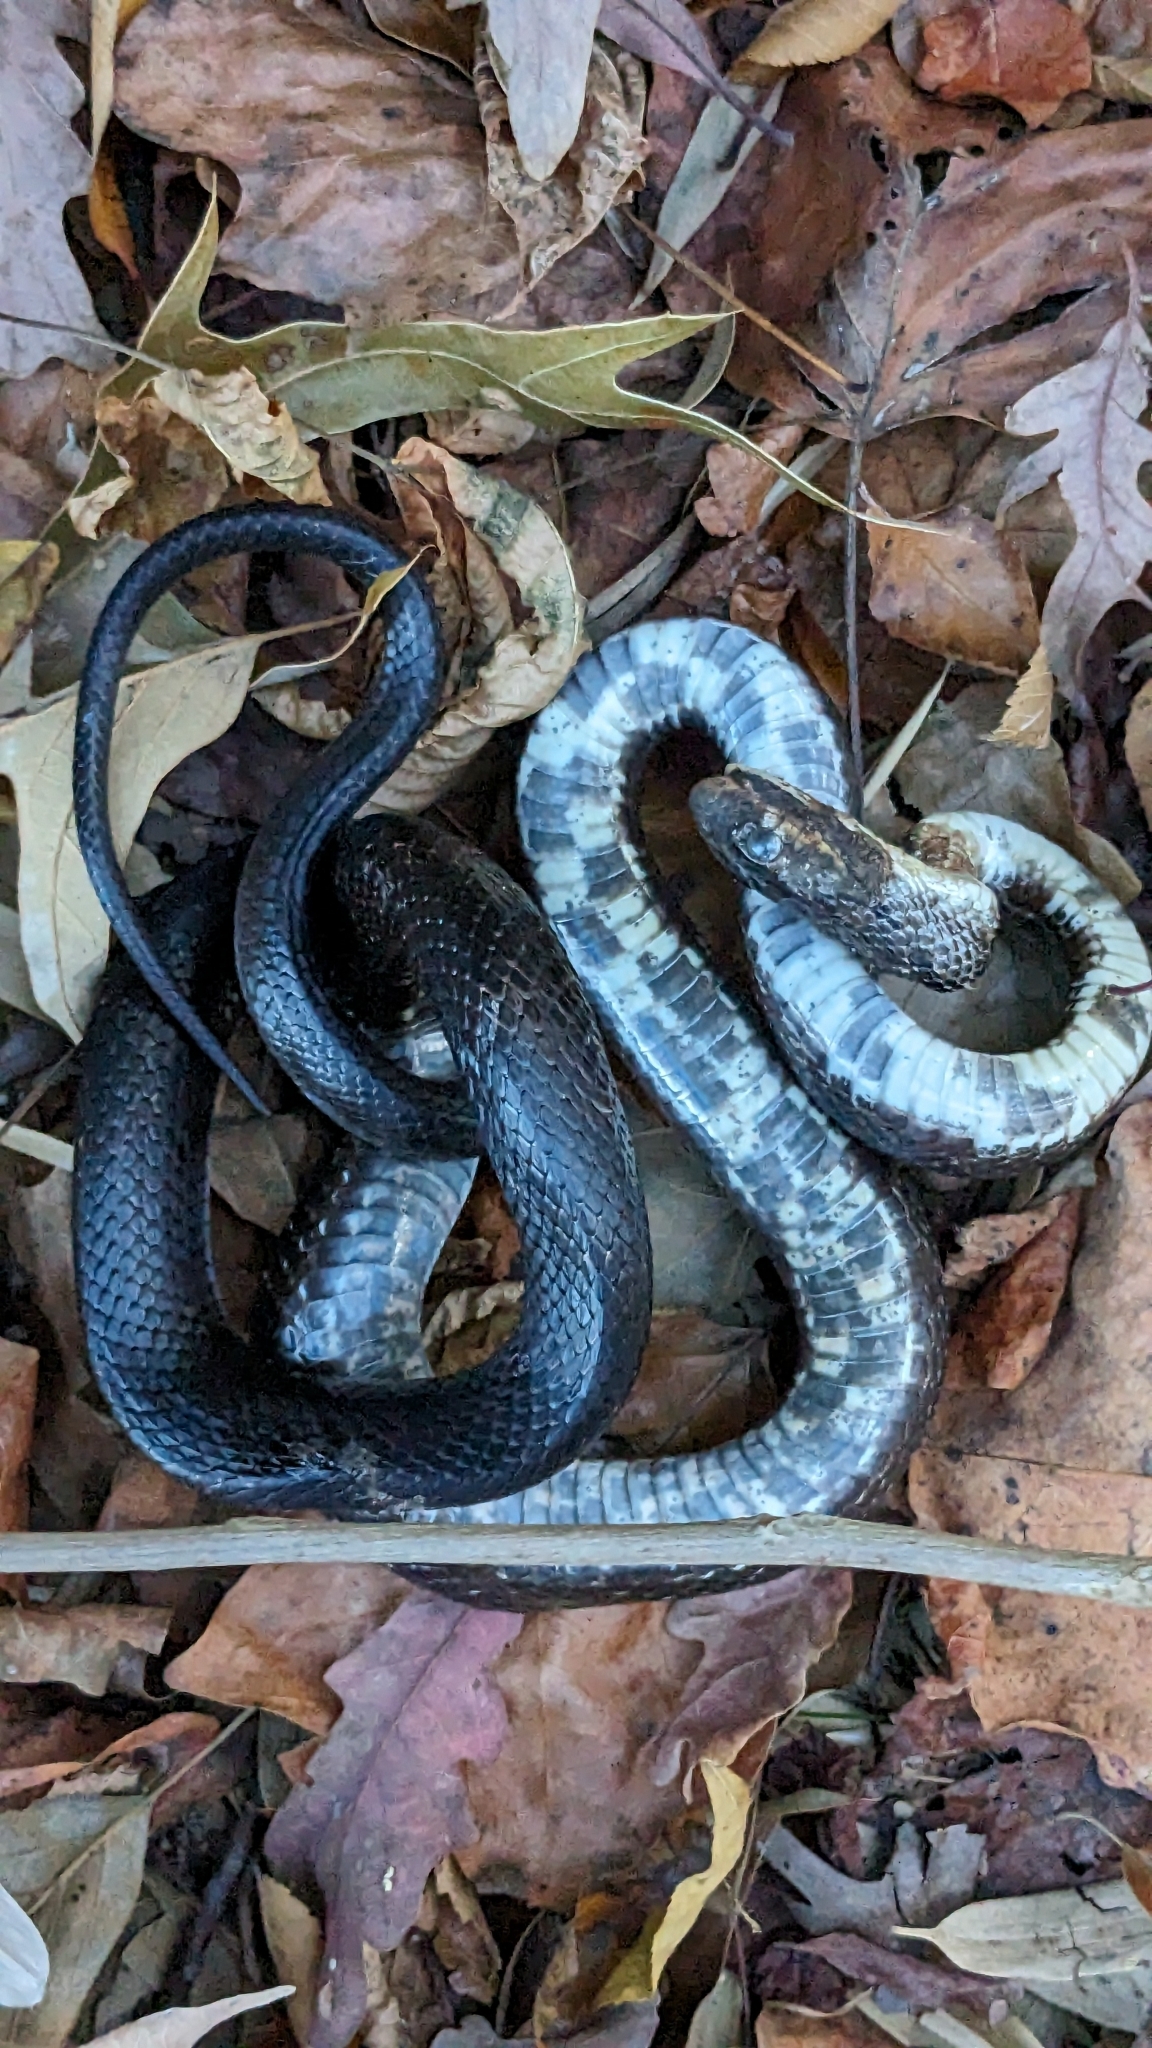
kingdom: Animalia
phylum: Chordata
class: Squamata
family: Colubridae
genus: Pantherophis
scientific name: Pantherophis spiloides
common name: Gray rat snake
